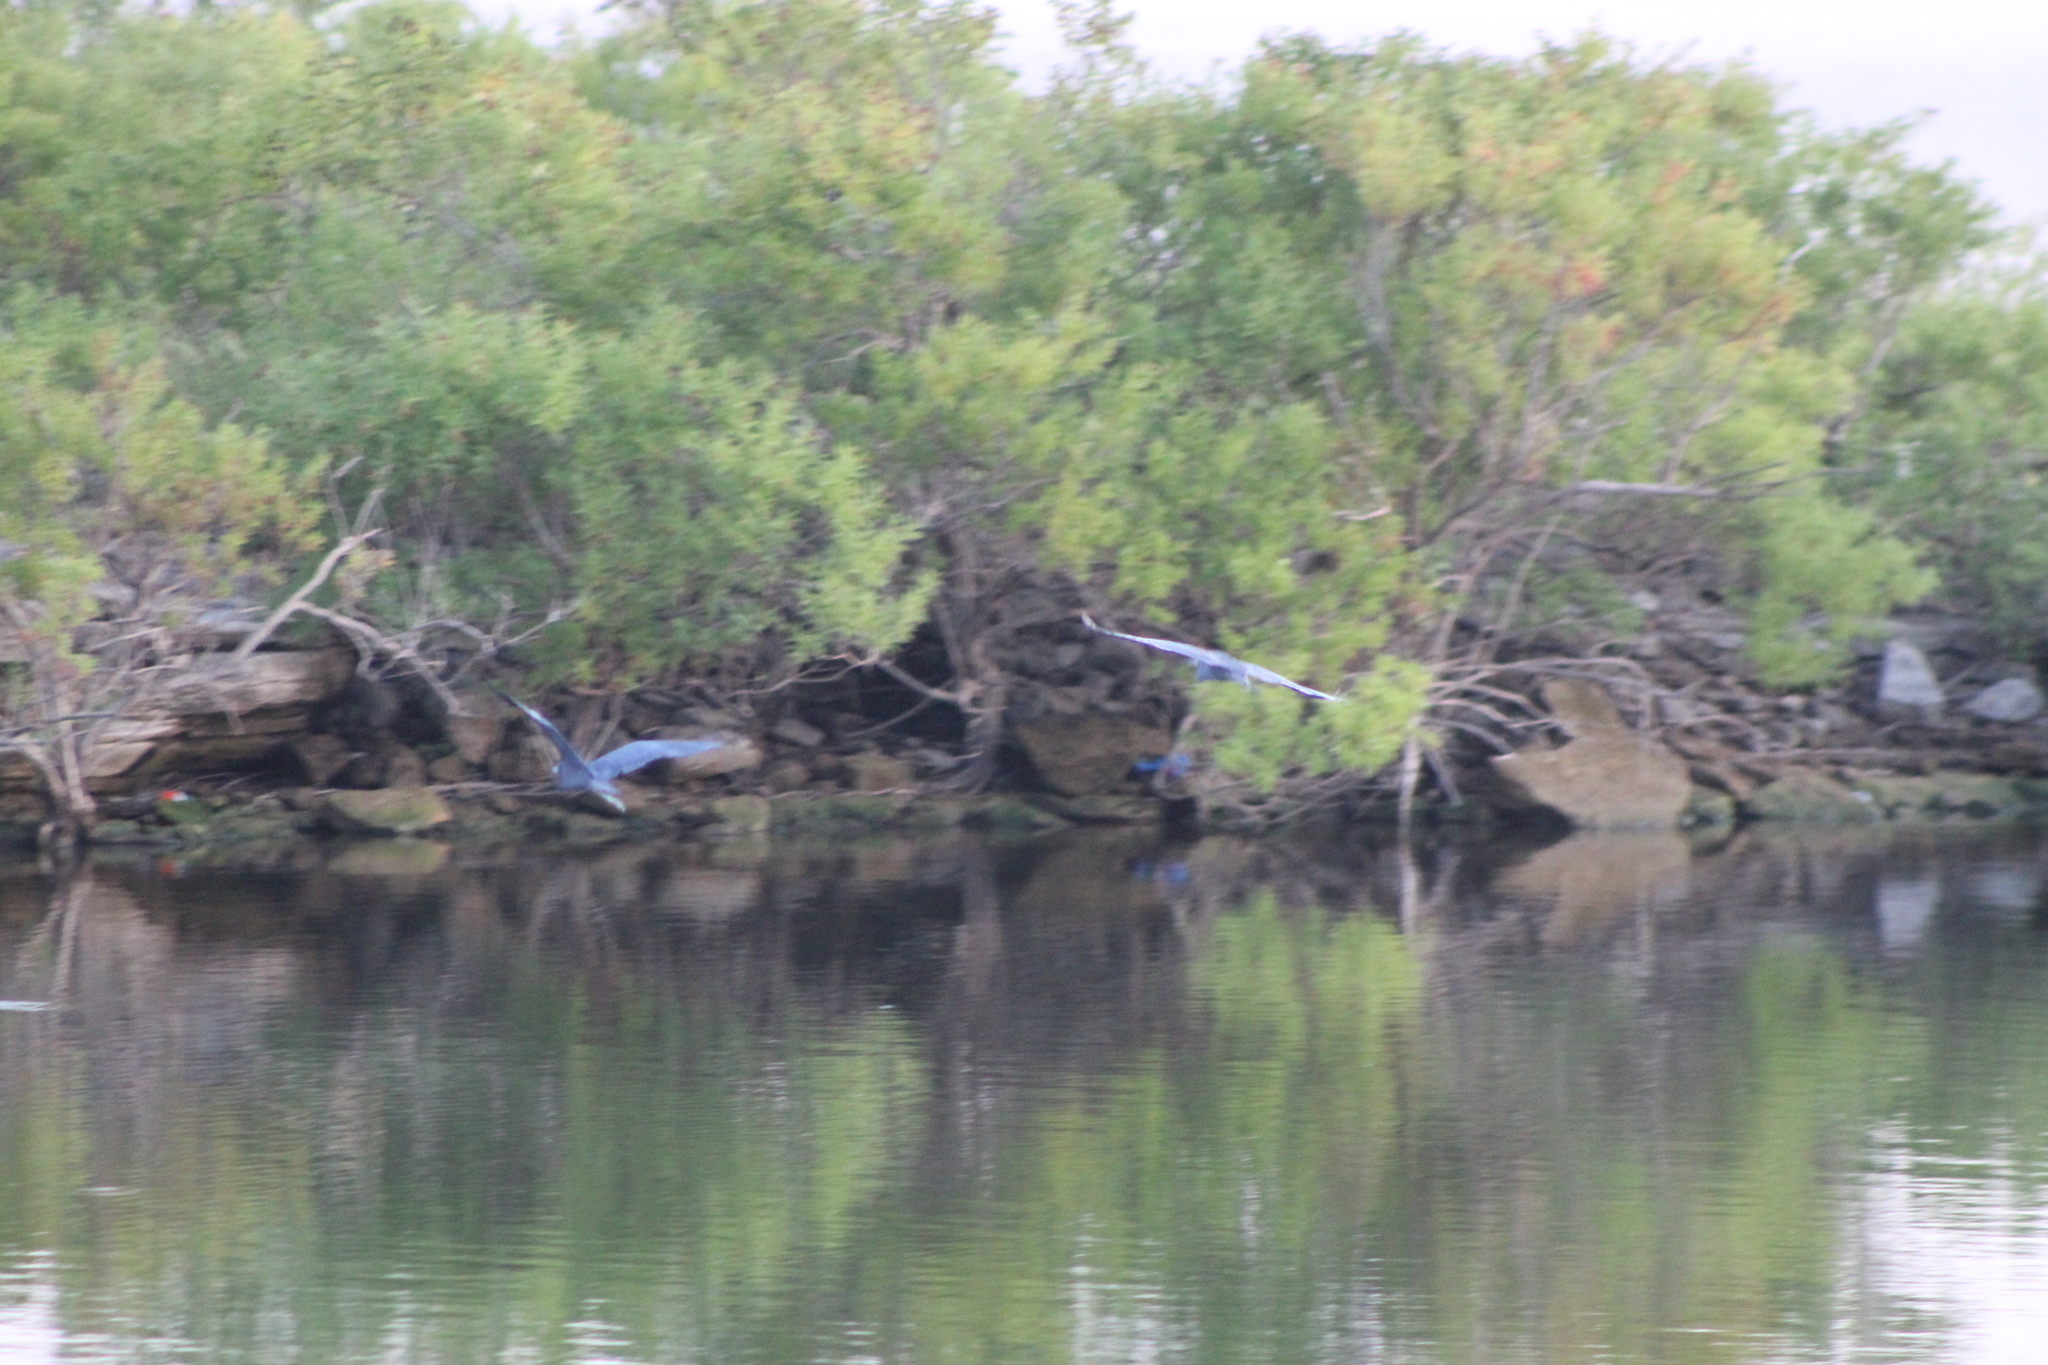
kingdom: Animalia
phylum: Chordata
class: Aves
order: Pelecaniformes
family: Ardeidae
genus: Egretta
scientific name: Egretta caerulea
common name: Little blue heron
